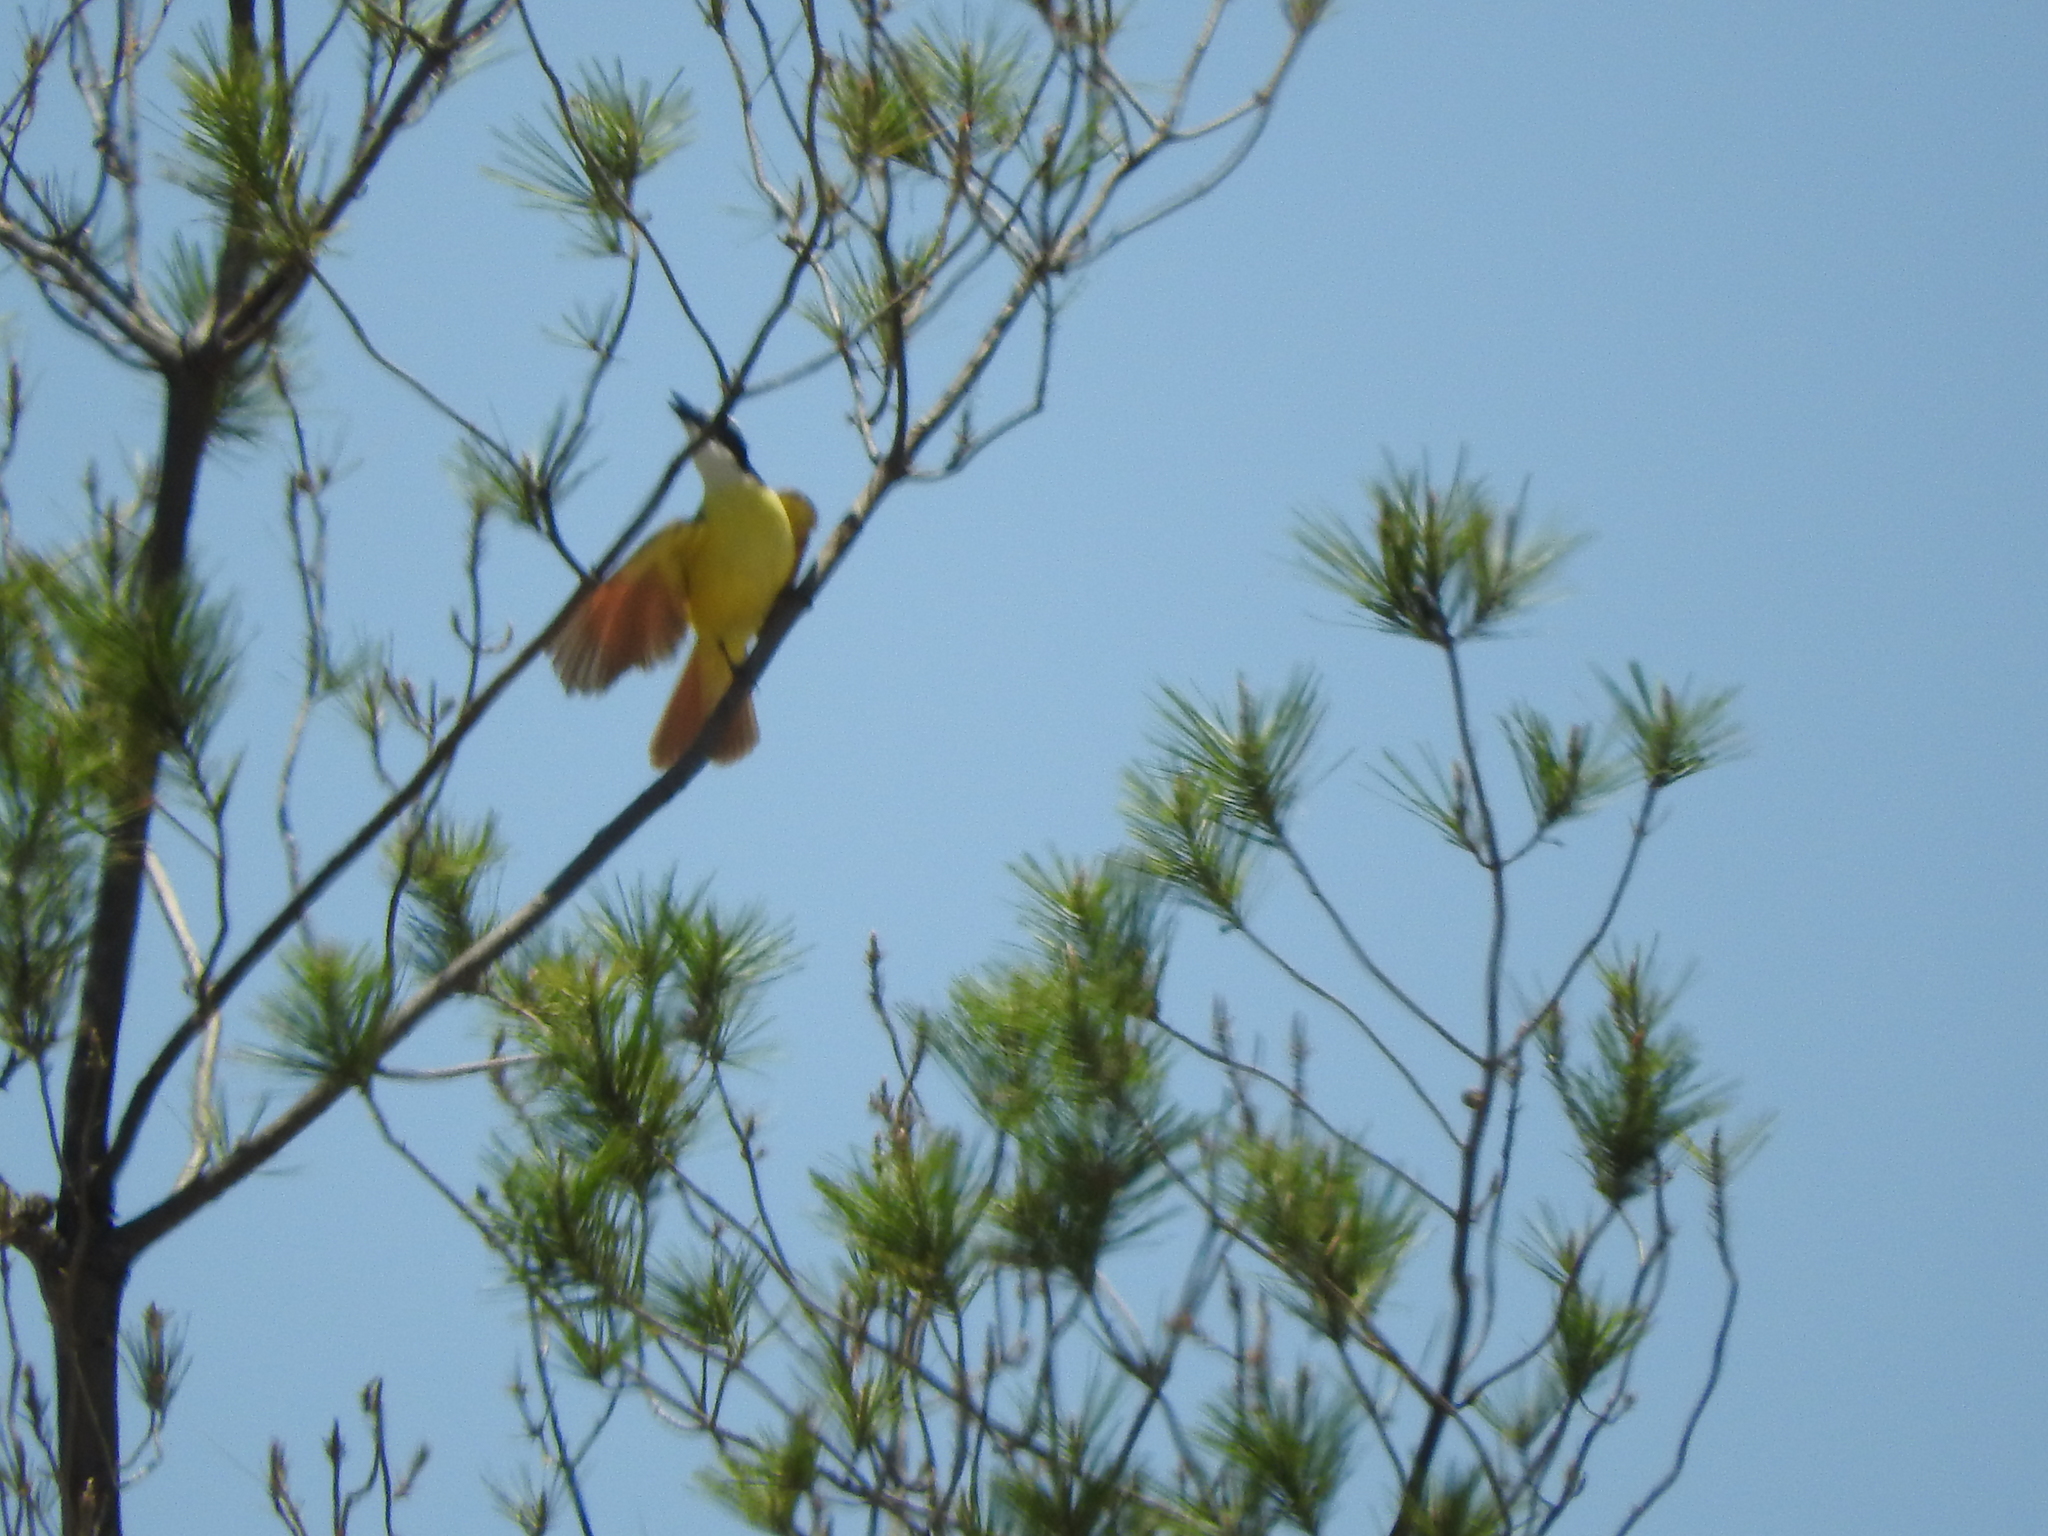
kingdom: Animalia
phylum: Chordata
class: Aves
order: Passeriformes
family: Tyrannidae
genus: Pitangus
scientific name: Pitangus sulphuratus
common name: Great kiskadee
